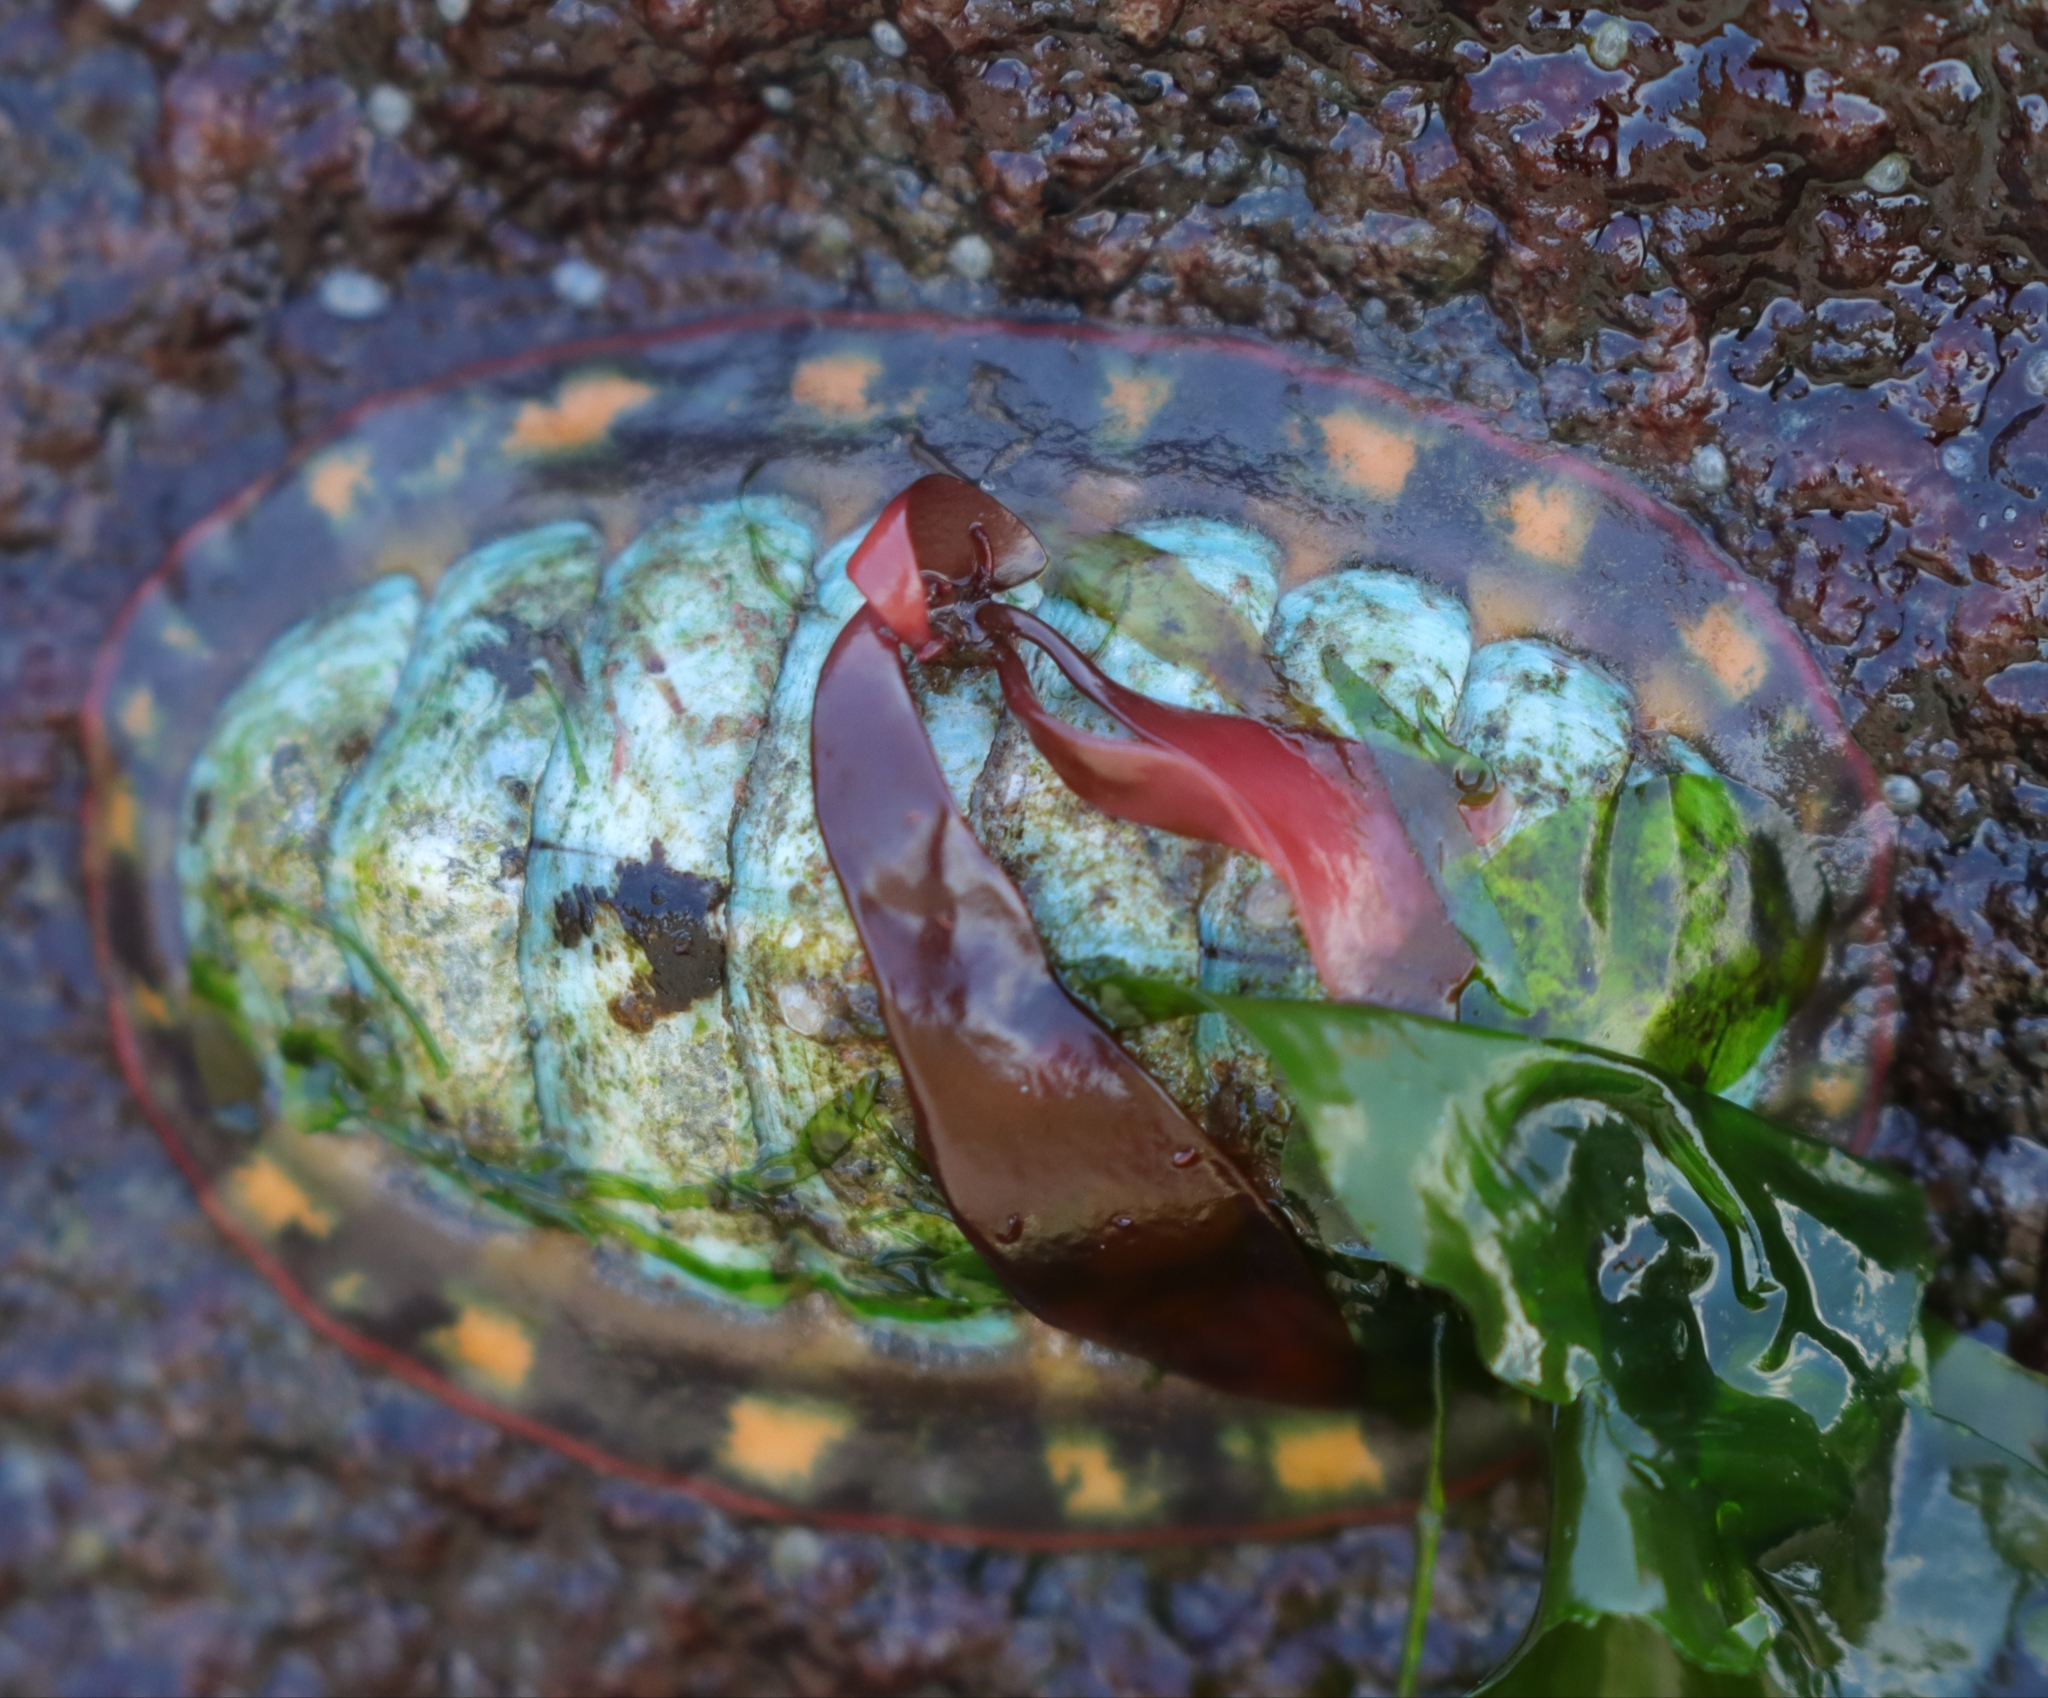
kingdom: Animalia
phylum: Mollusca
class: Polyplacophora
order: Chitonida
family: Tonicellidae
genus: Tonicella
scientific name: Tonicella lineata
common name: Lined chiton
